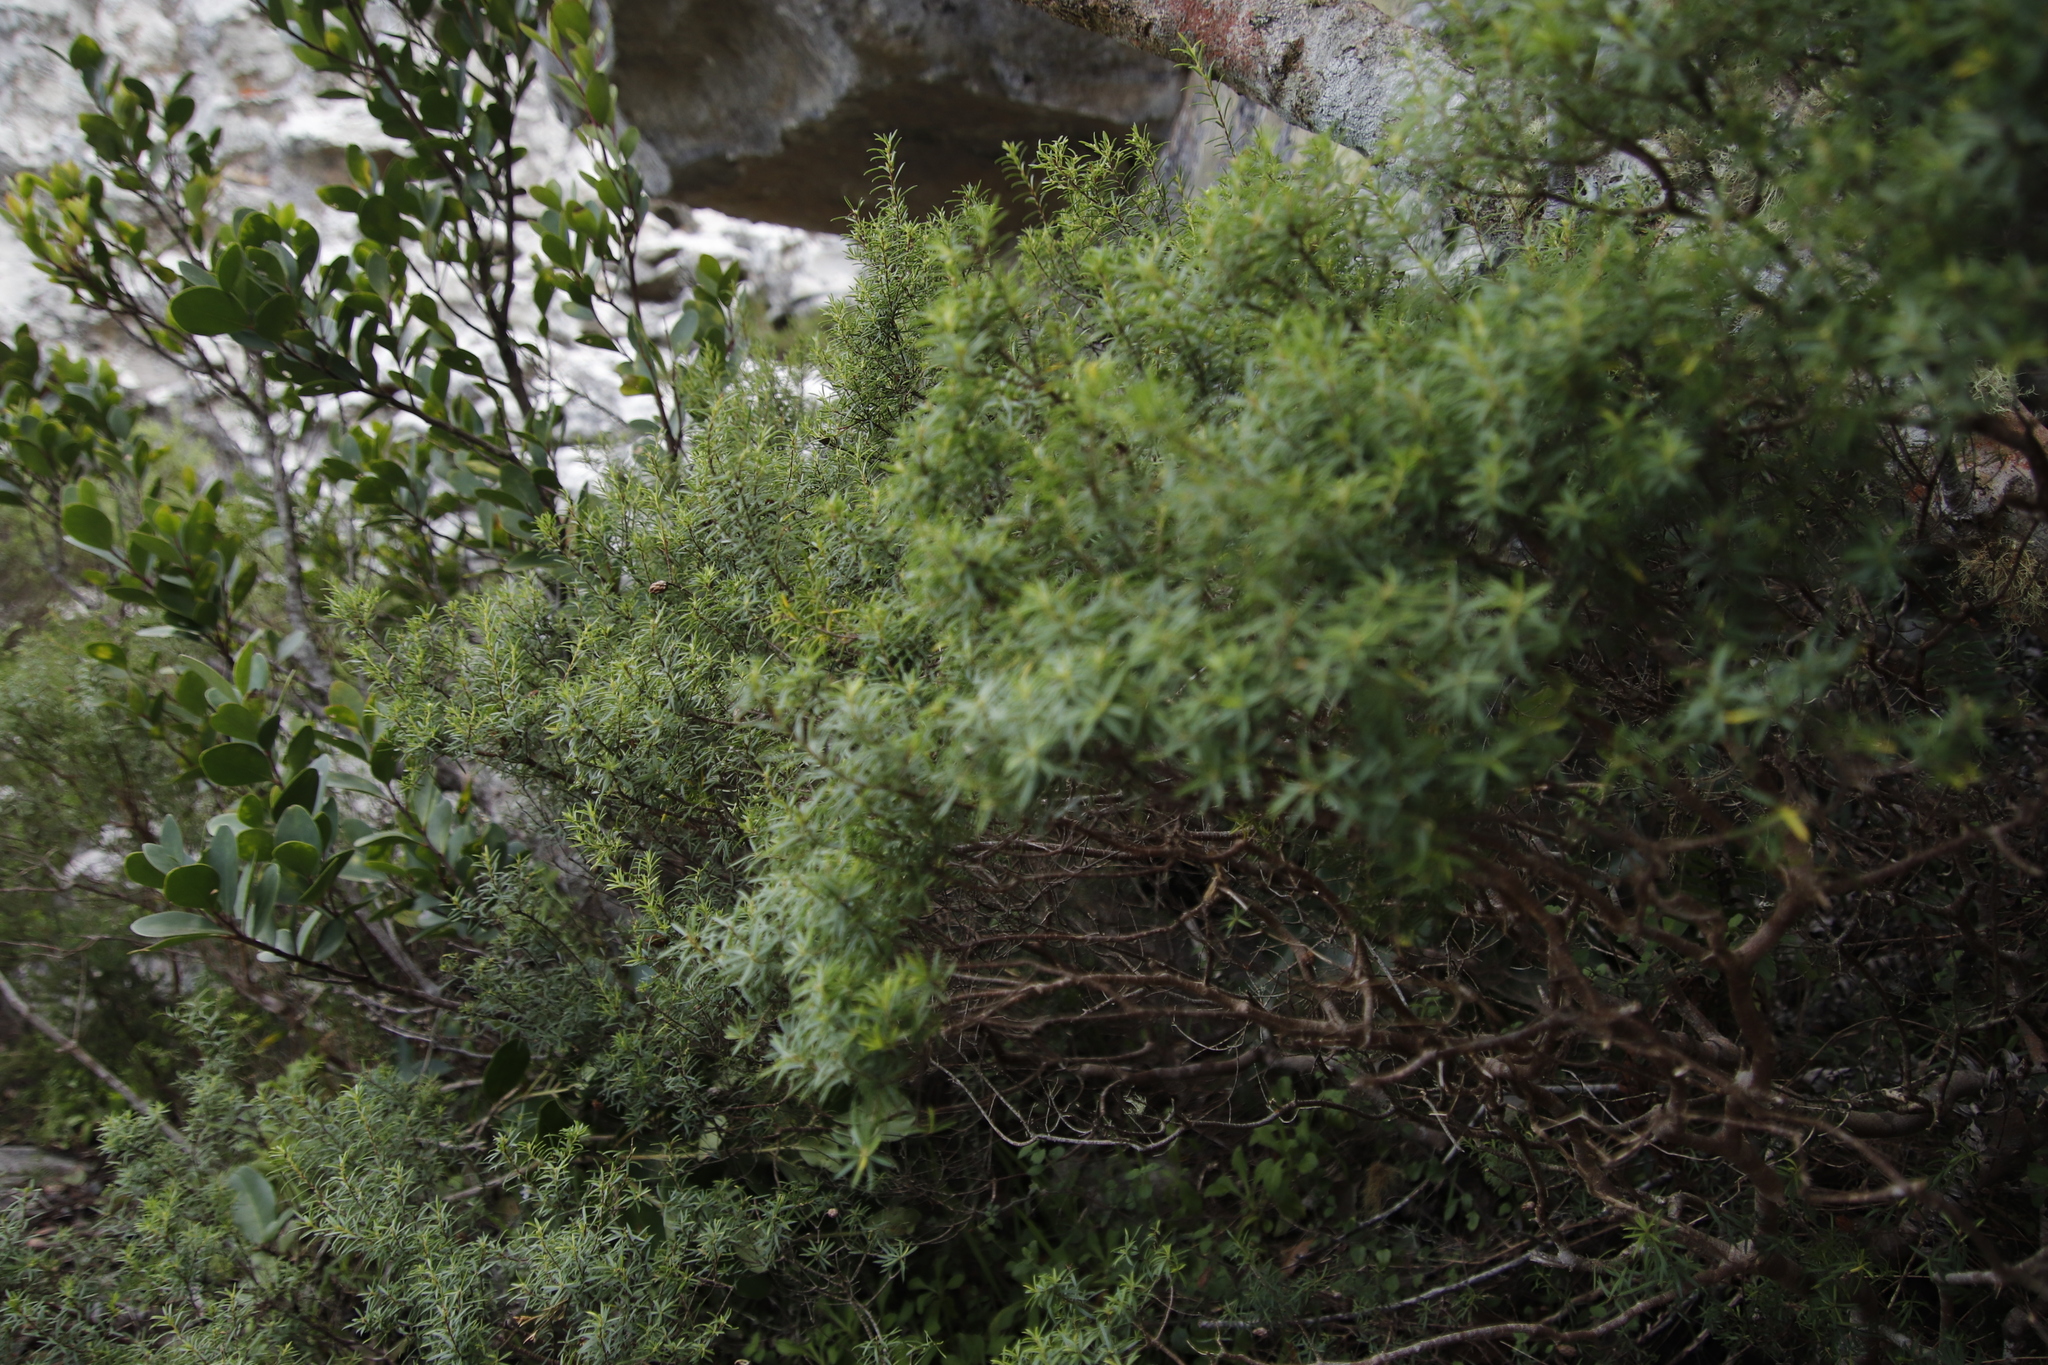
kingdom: Plantae
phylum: Tracheophyta
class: Magnoliopsida
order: Sapindales
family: Rutaceae
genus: Coleonema
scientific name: Coleonema album
